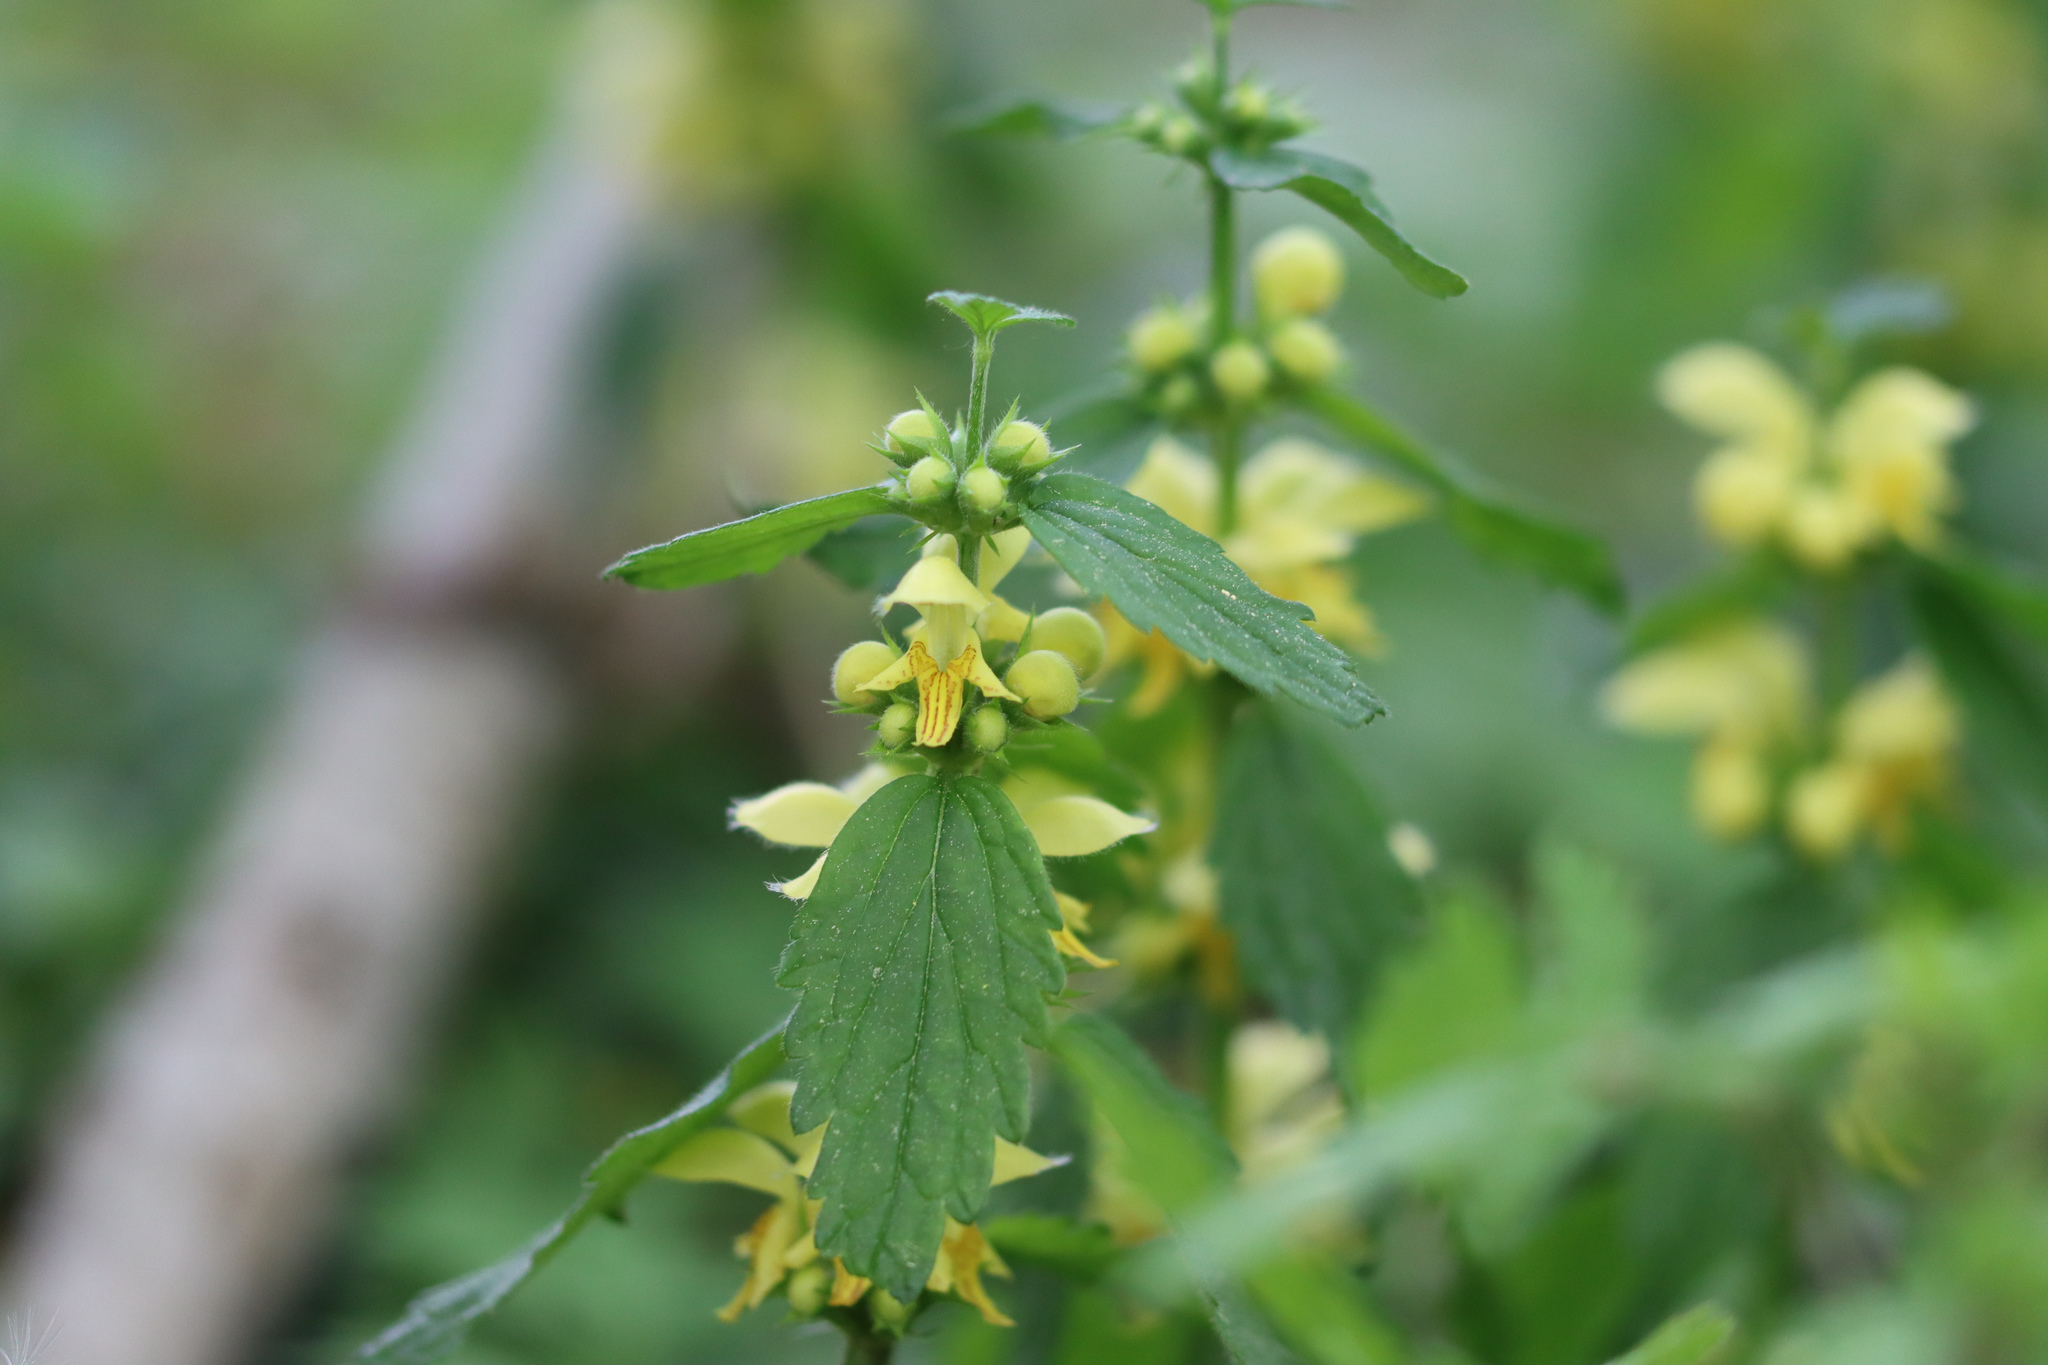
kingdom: Plantae
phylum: Tracheophyta
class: Magnoliopsida
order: Lamiales
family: Lamiaceae
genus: Lamium
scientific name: Lamium galeobdolon
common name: Yellow archangel
